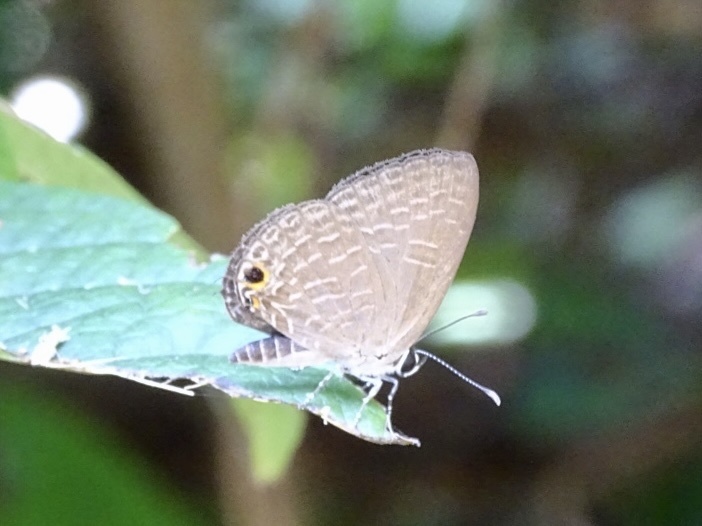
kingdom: Animalia
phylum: Arthropoda
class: Insecta
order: Lepidoptera
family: Lycaenidae
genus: Jamides
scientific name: Jamides bochus
